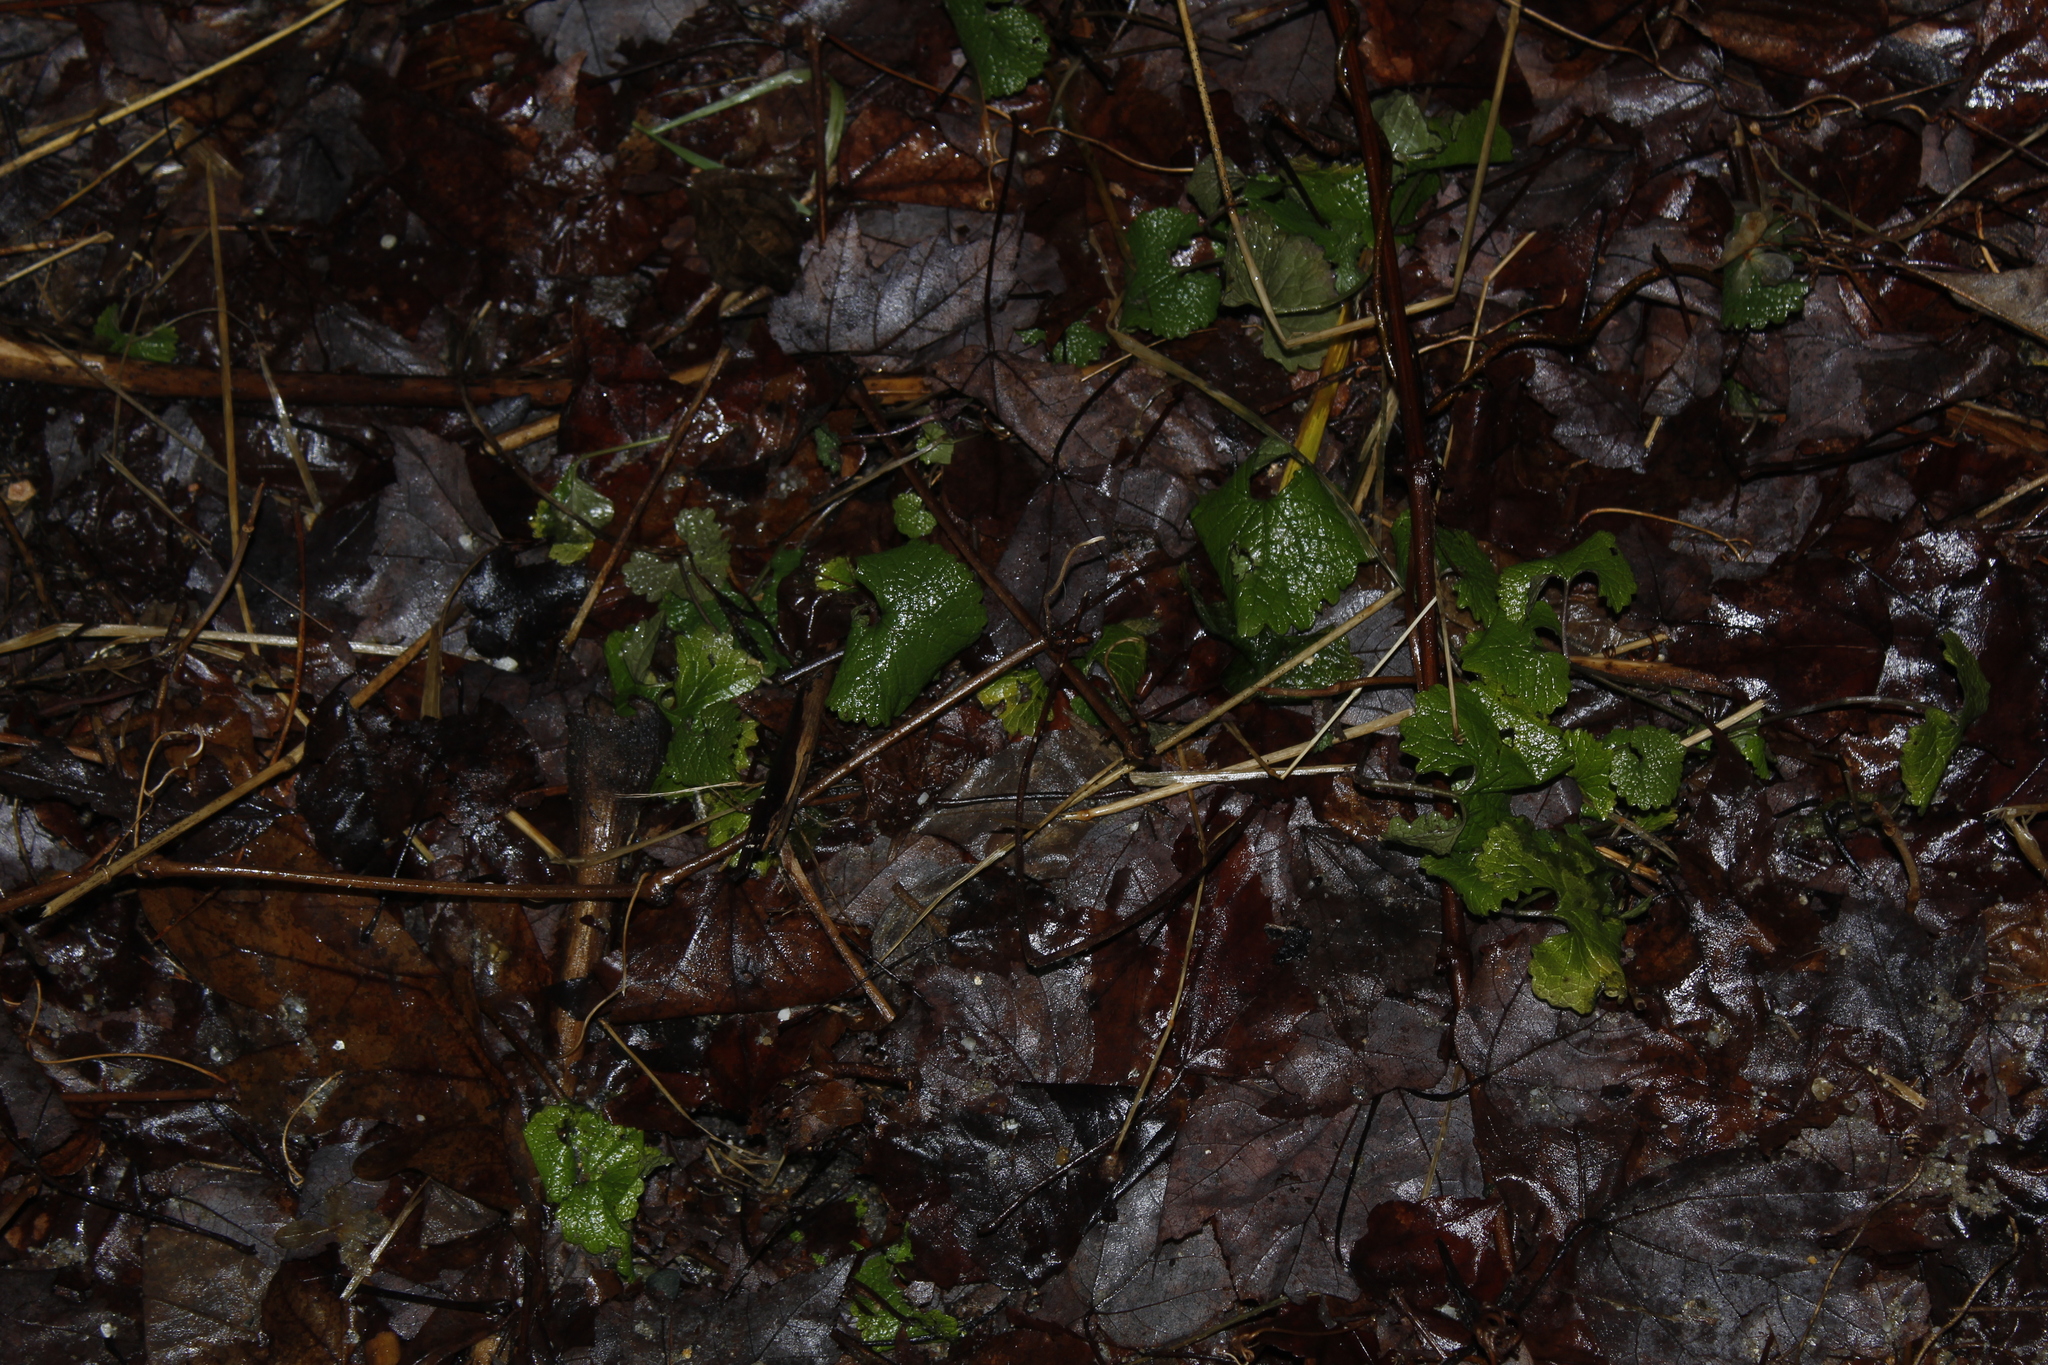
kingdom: Plantae
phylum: Tracheophyta
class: Magnoliopsida
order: Brassicales
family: Brassicaceae
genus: Alliaria
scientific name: Alliaria petiolata
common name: Garlic mustard
